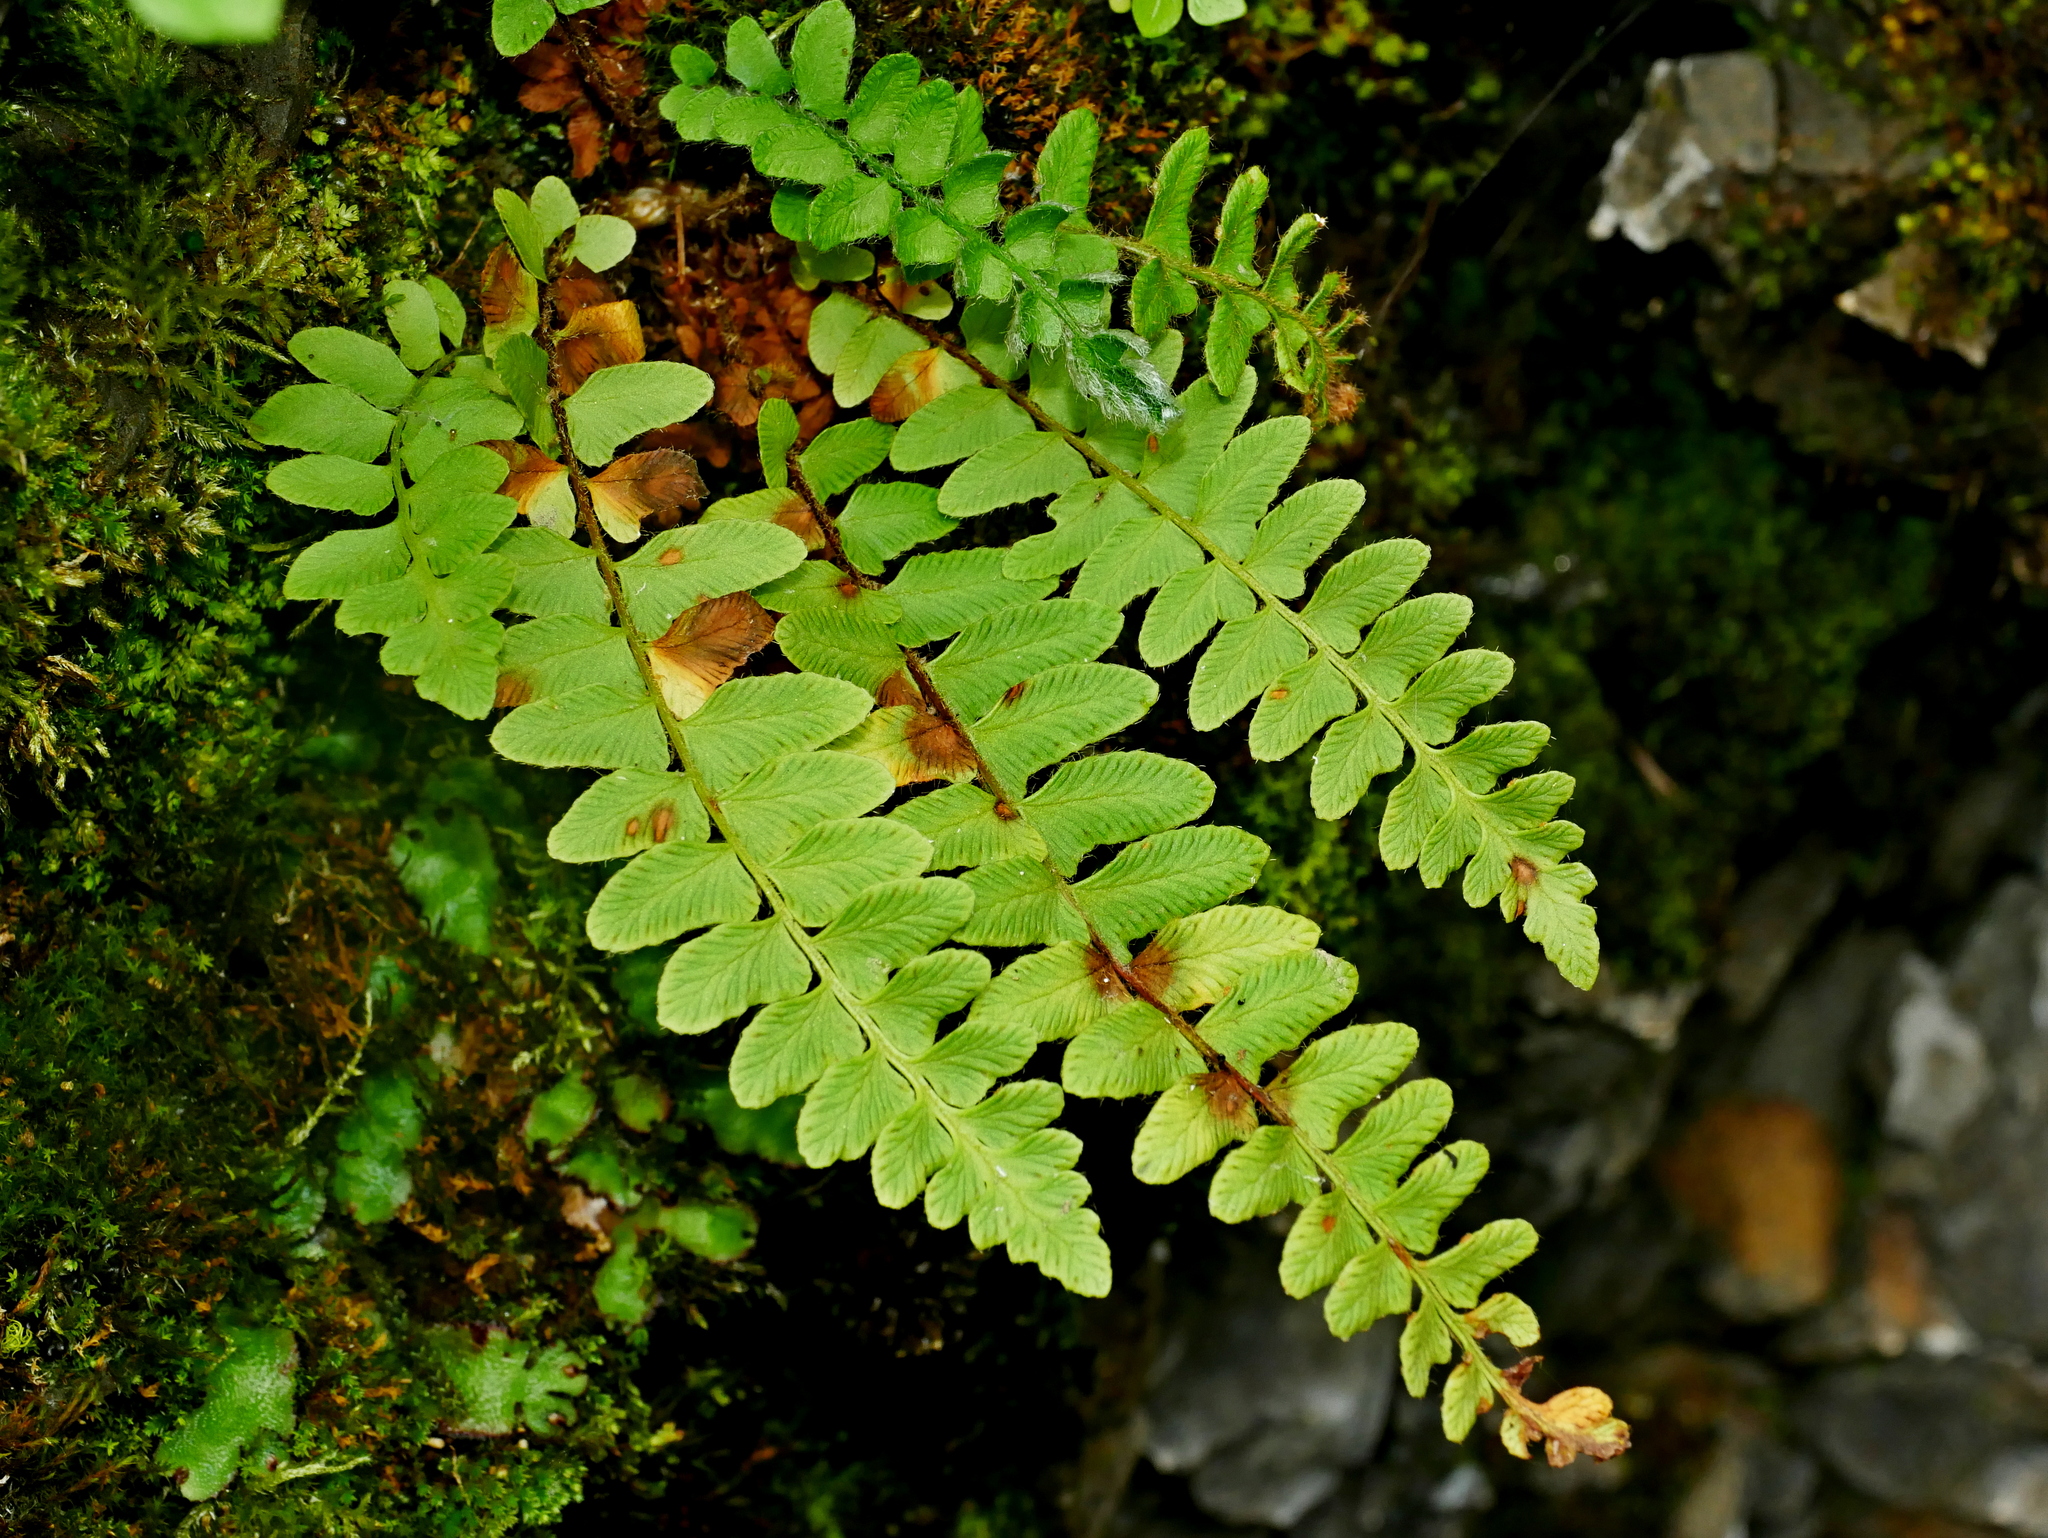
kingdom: Plantae
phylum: Tracheophyta
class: Polypodiopsida
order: Polypodiales
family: Woodsiaceae
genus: Woodsia
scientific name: Woodsia polystichoides
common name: Holly fern woodsia
